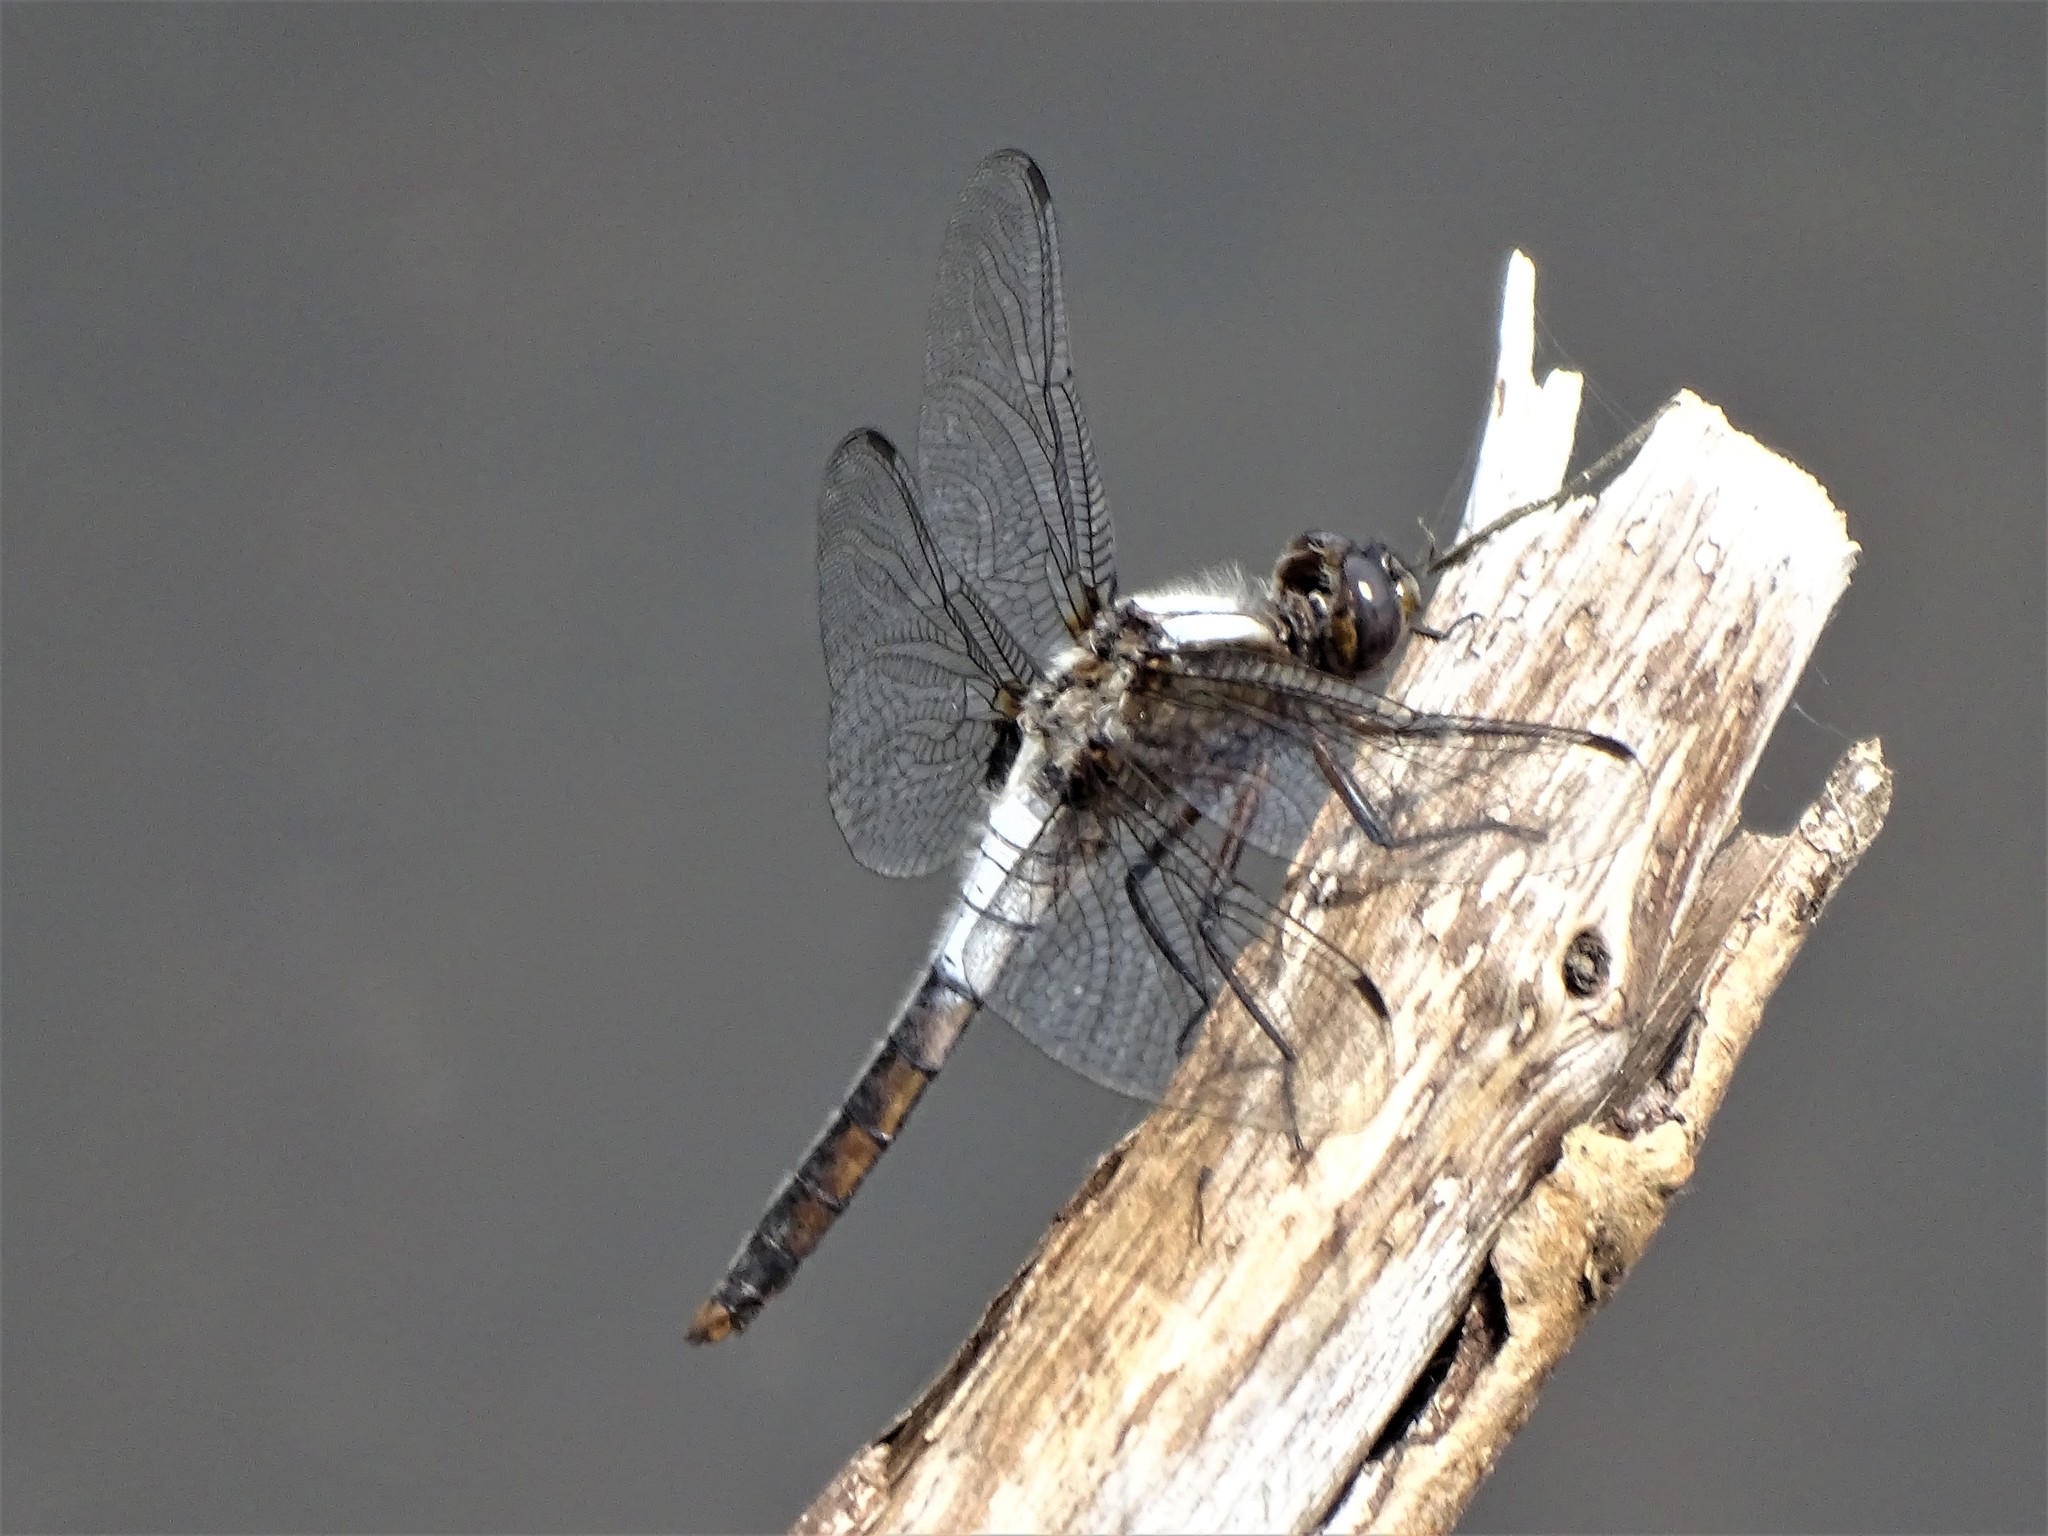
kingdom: Animalia
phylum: Arthropoda
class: Insecta
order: Odonata
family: Libellulidae
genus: Ladona
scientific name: Ladona julia
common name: Chalk-fronted corporal
